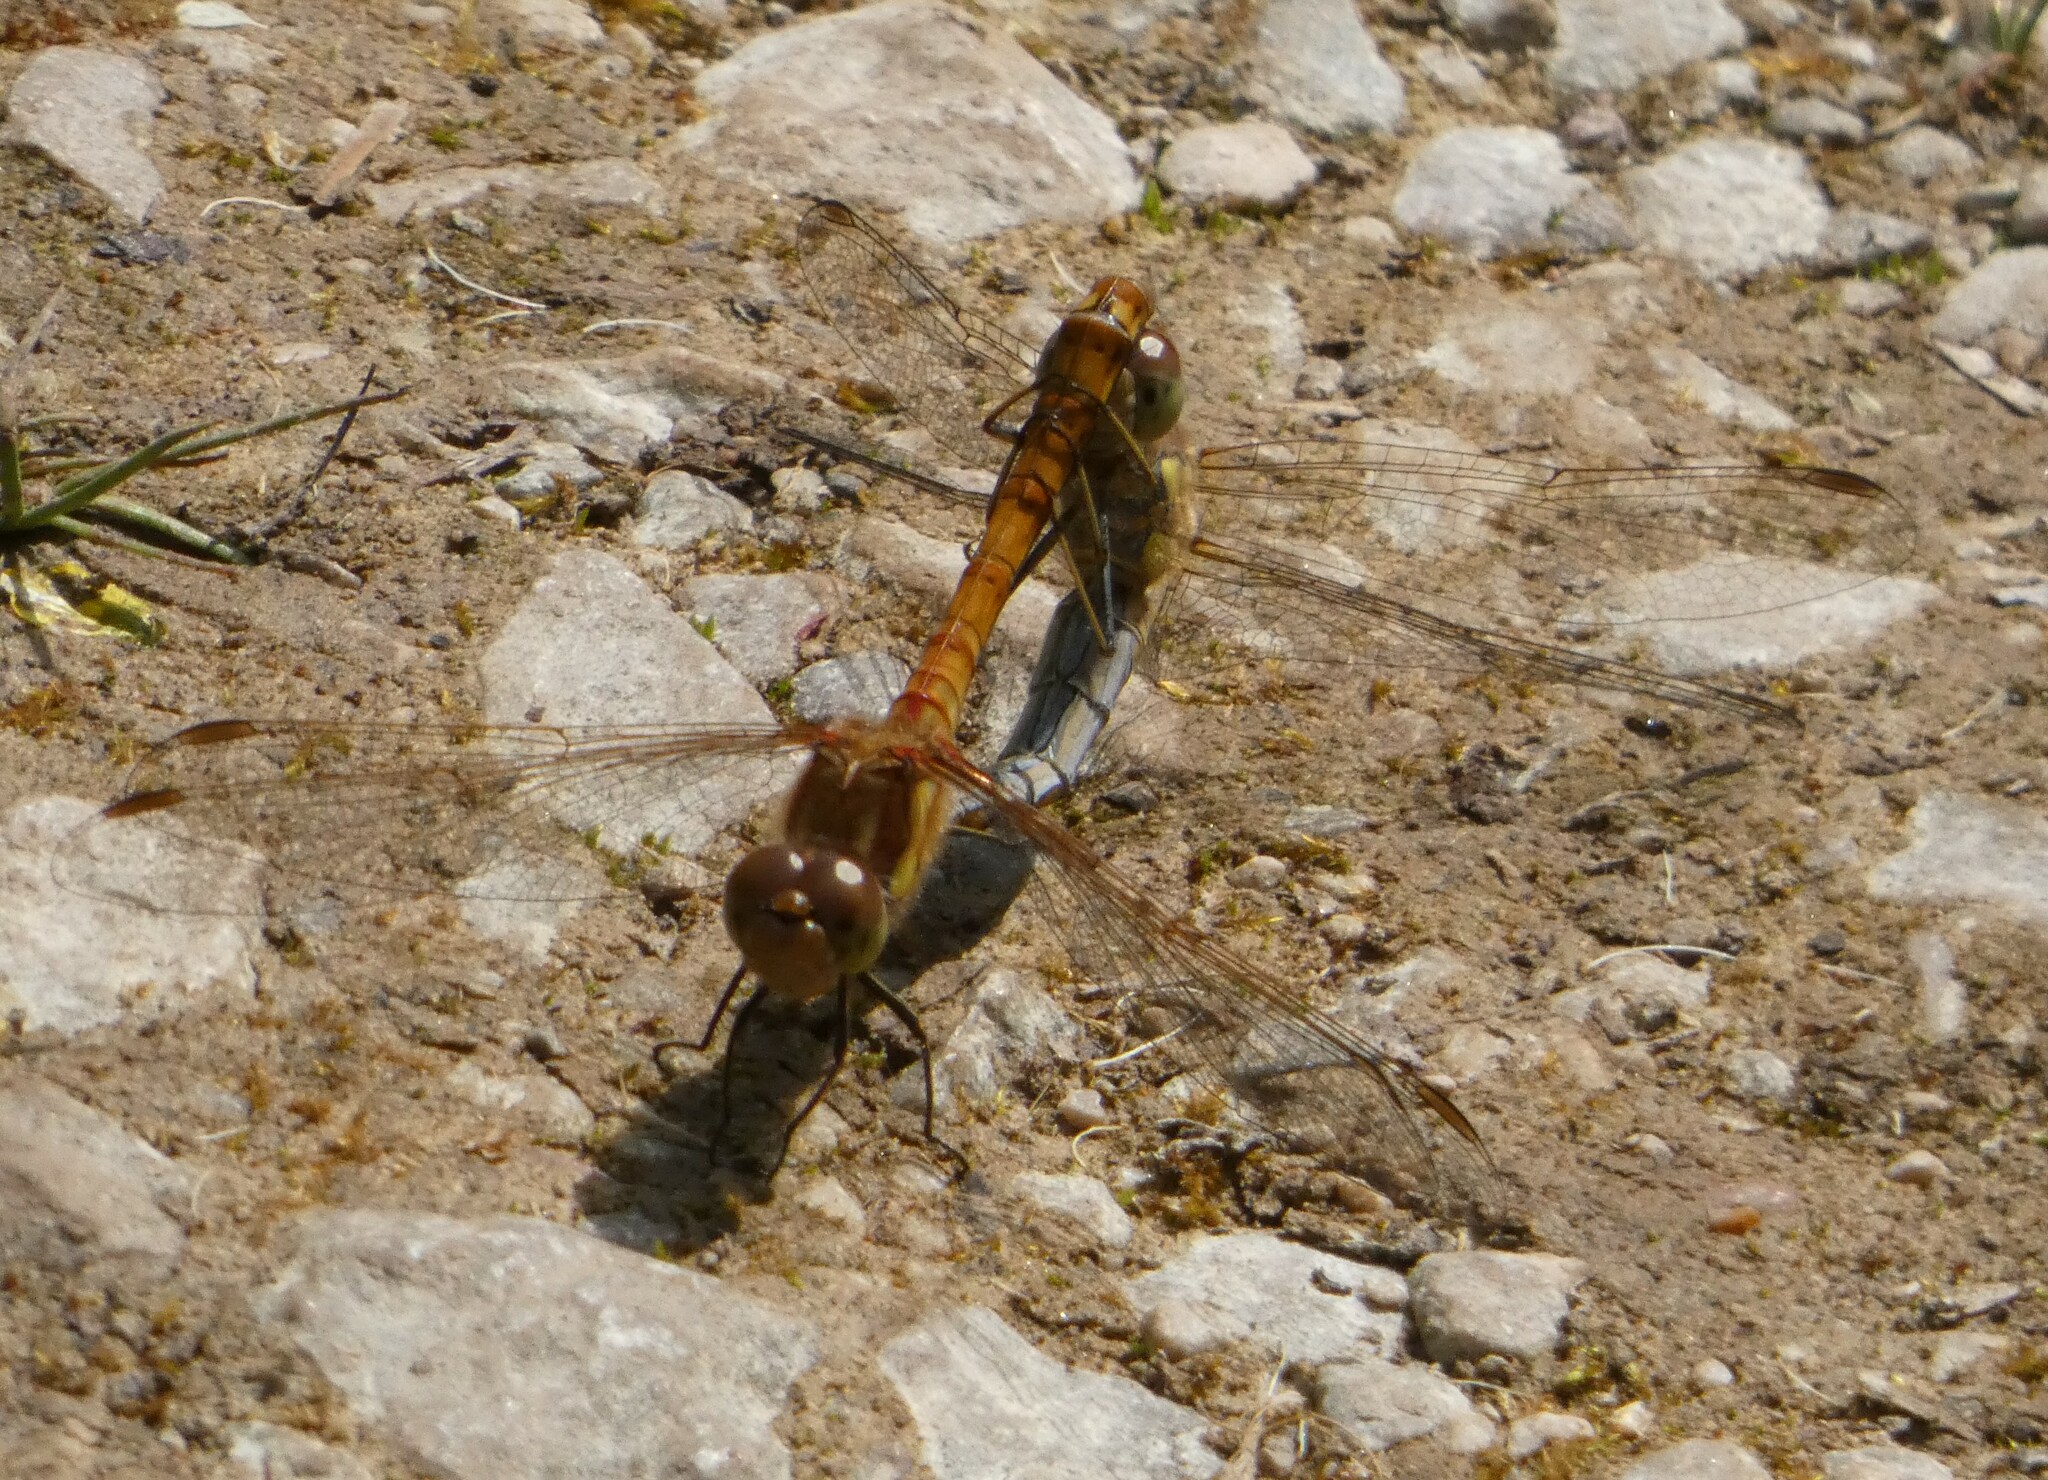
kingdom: Animalia
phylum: Arthropoda
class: Insecta
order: Odonata
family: Libellulidae
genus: Sympetrum
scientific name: Sympetrum striolatum
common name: Common darter
